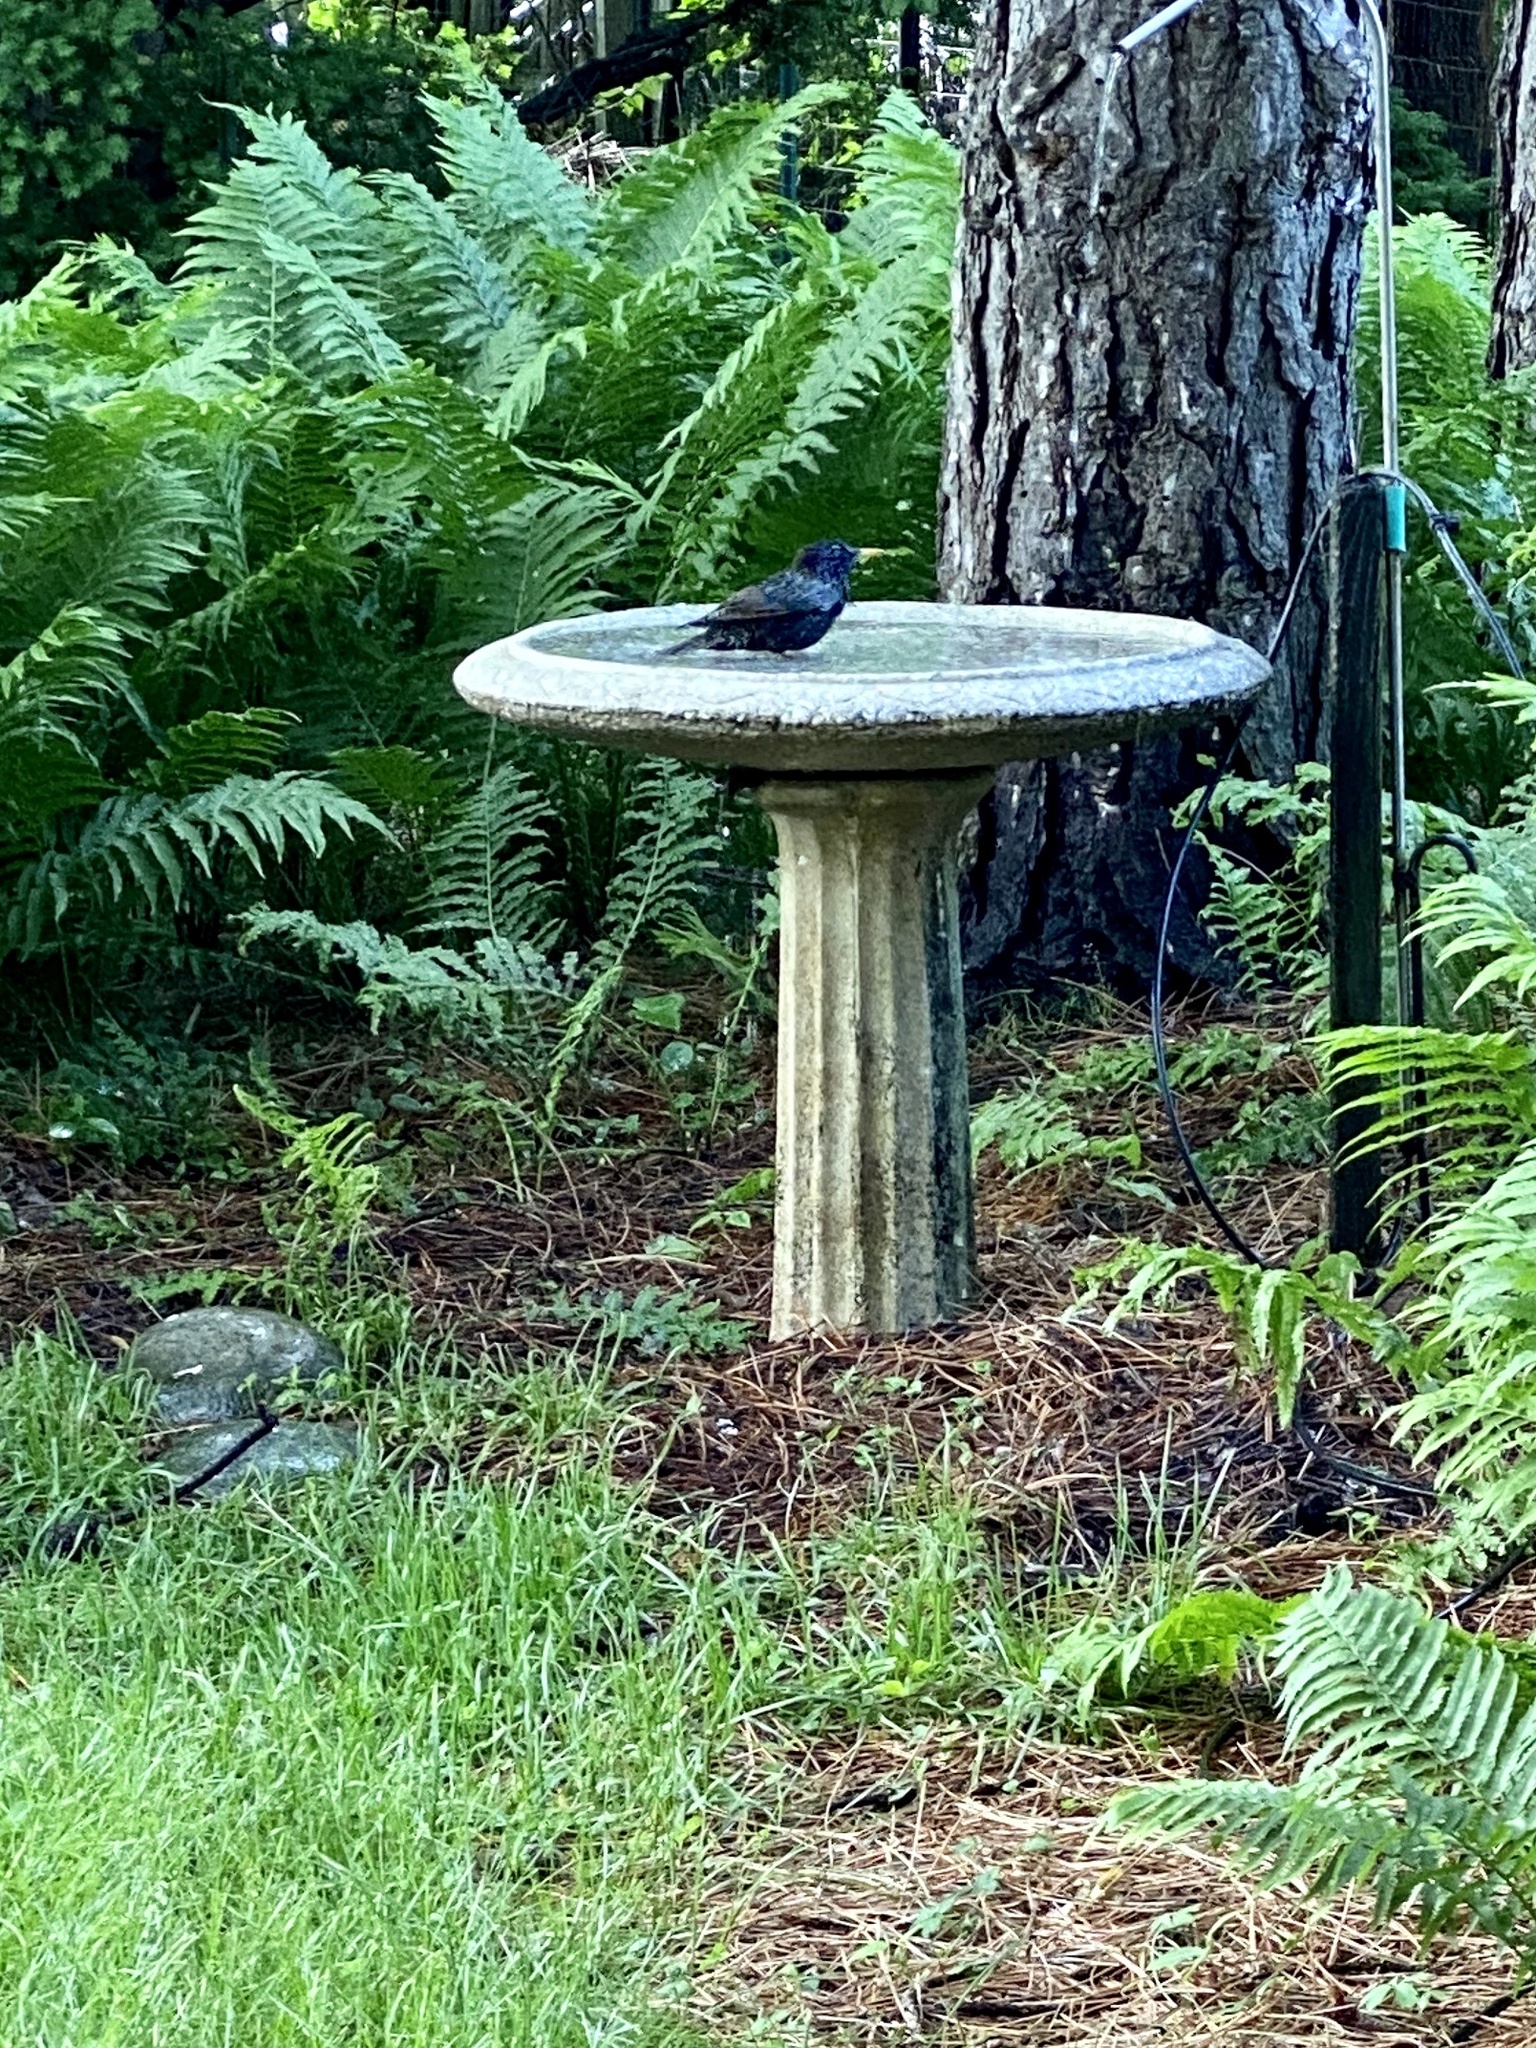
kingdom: Animalia
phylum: Chordata
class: Aves
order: Passeriformes
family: Sturnidae
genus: Sturnus
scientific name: Sturnus vulgaris
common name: Common starling
